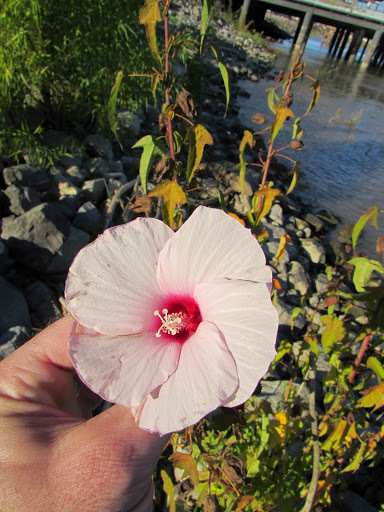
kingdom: Plantae
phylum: Tracheophyta
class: Magnoliopsida
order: Malvales
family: Malvaceae
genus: Hibiscus
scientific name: Hibiscus laevis
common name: Scarlet rose-mallow
